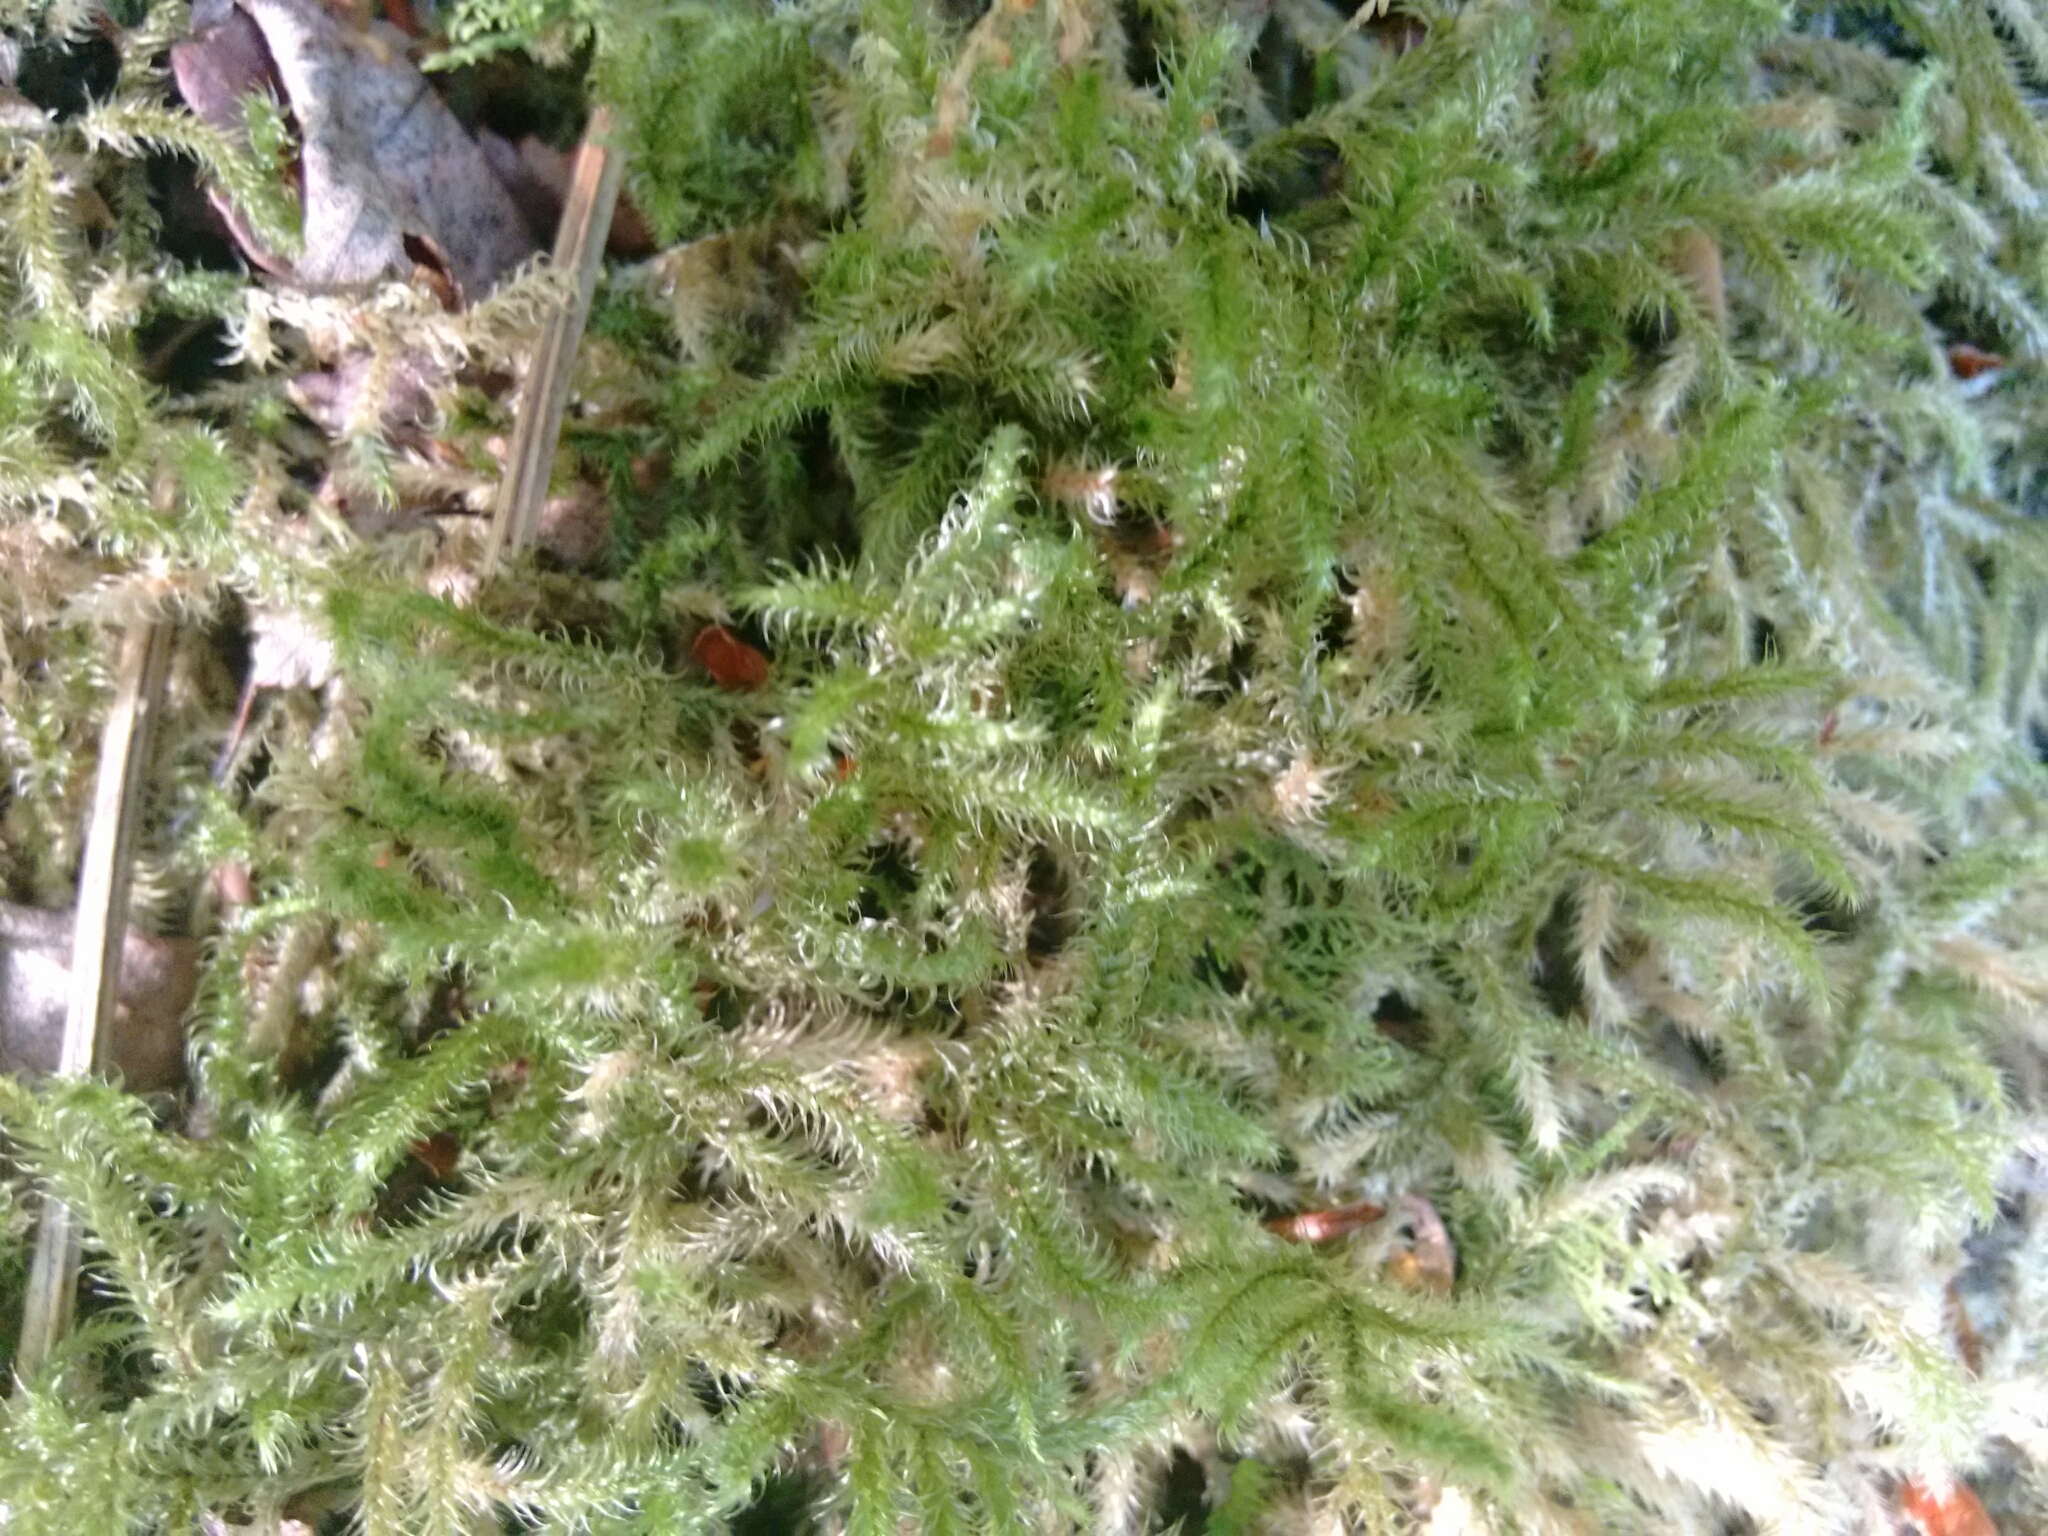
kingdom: Plantae
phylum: Bryophyta
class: Bryopsida
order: Hypnales
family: Hylocomiaceae
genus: Rhytidiadelphus
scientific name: Rhytidiadelphus loreus
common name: Lanky moss
